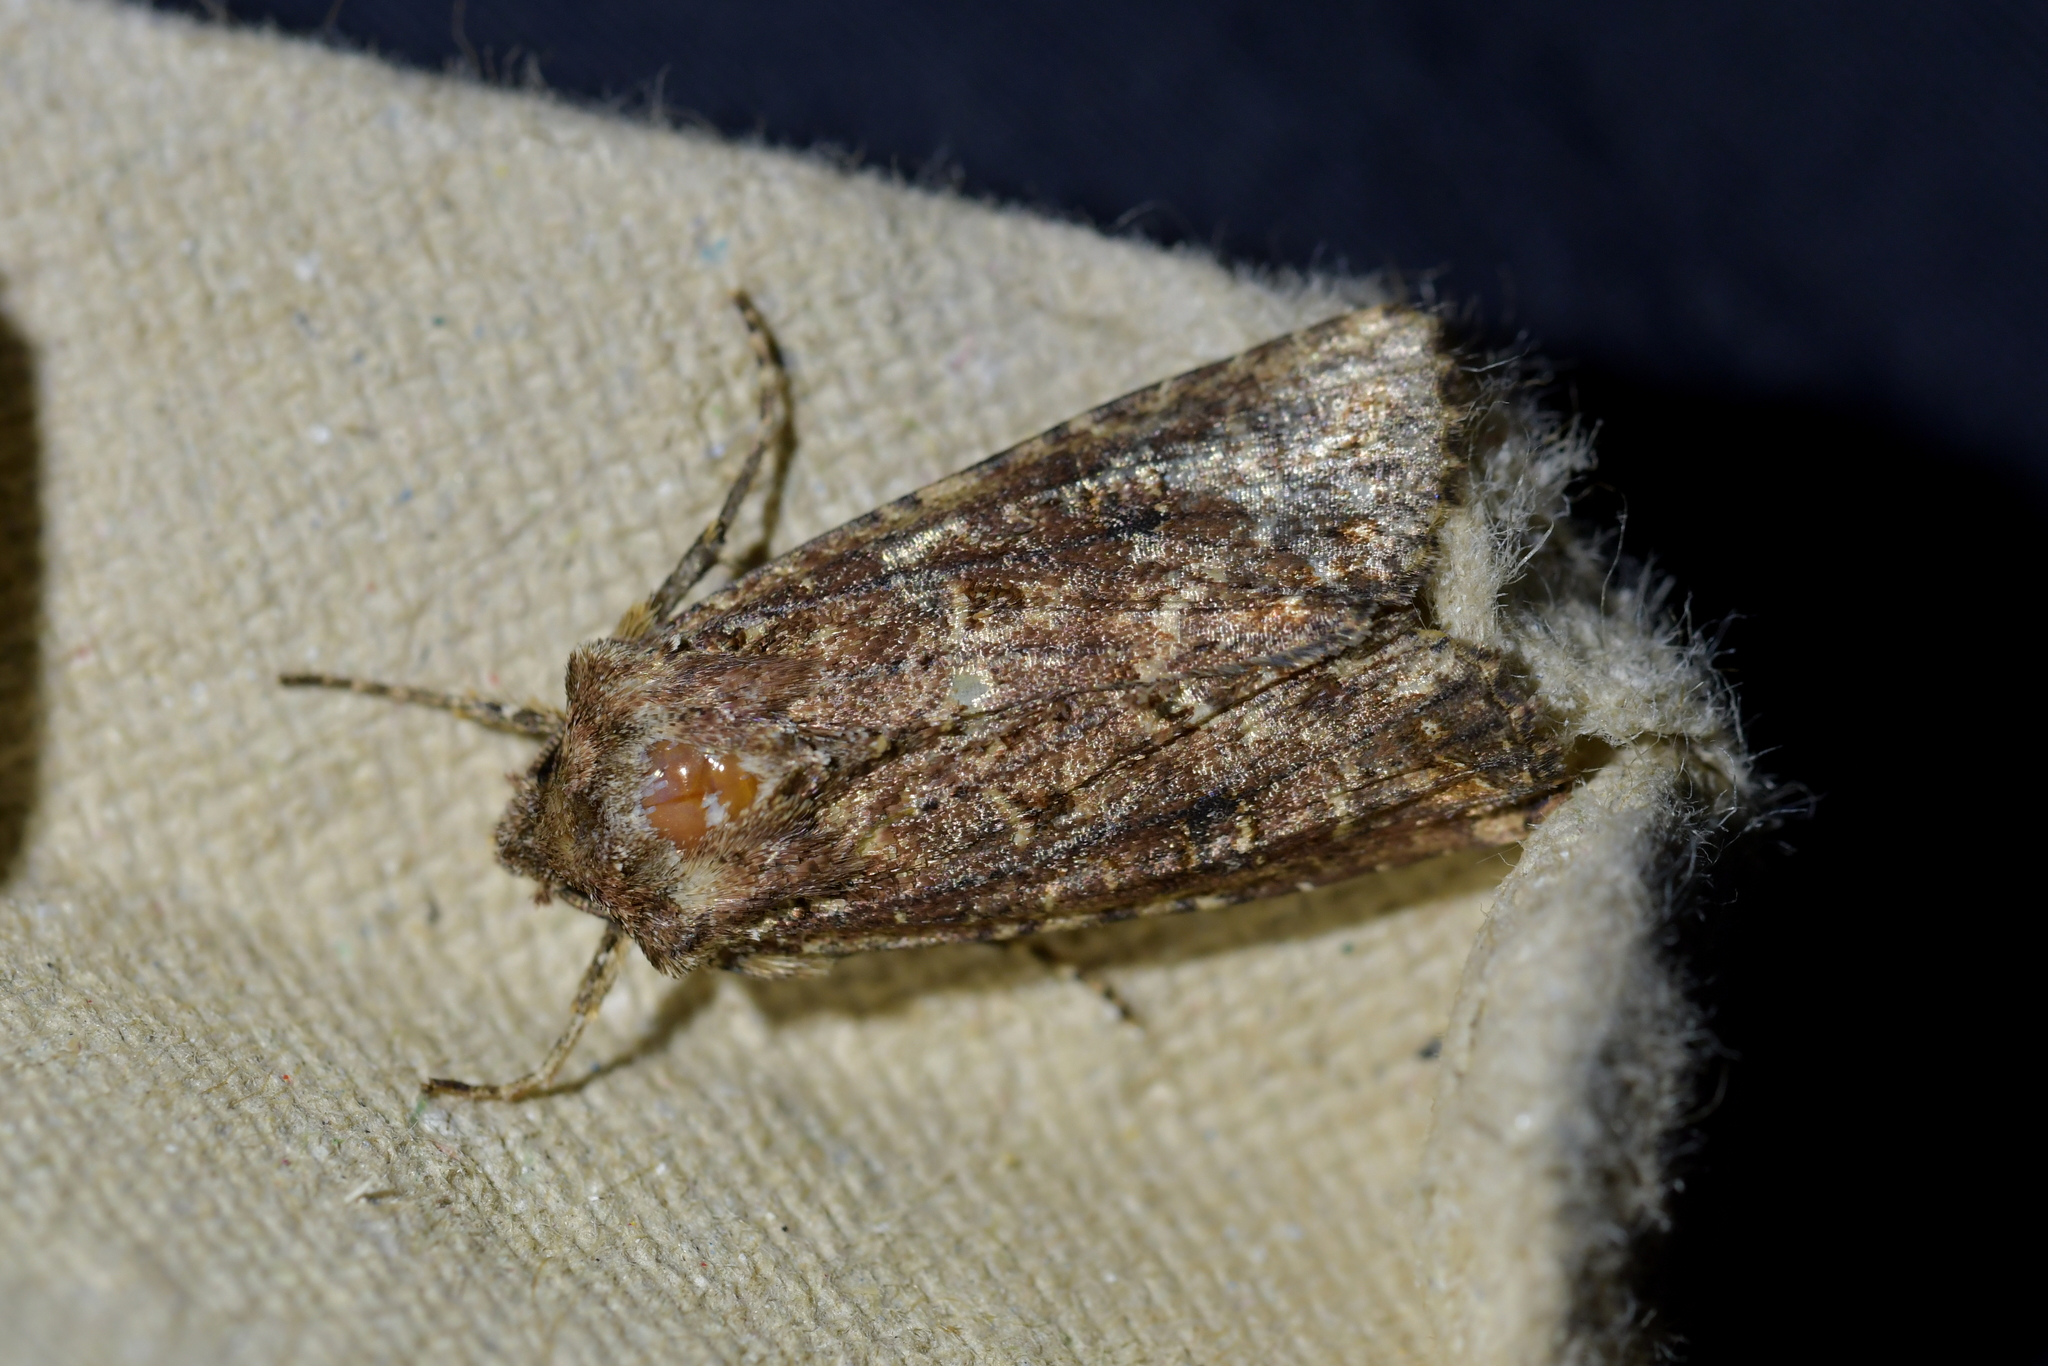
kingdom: Animalia
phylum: Arthropoda
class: Insecta
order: Lepidoptera
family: Noctuidae
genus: Ichneutica
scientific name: Ichneutica mustulenta
